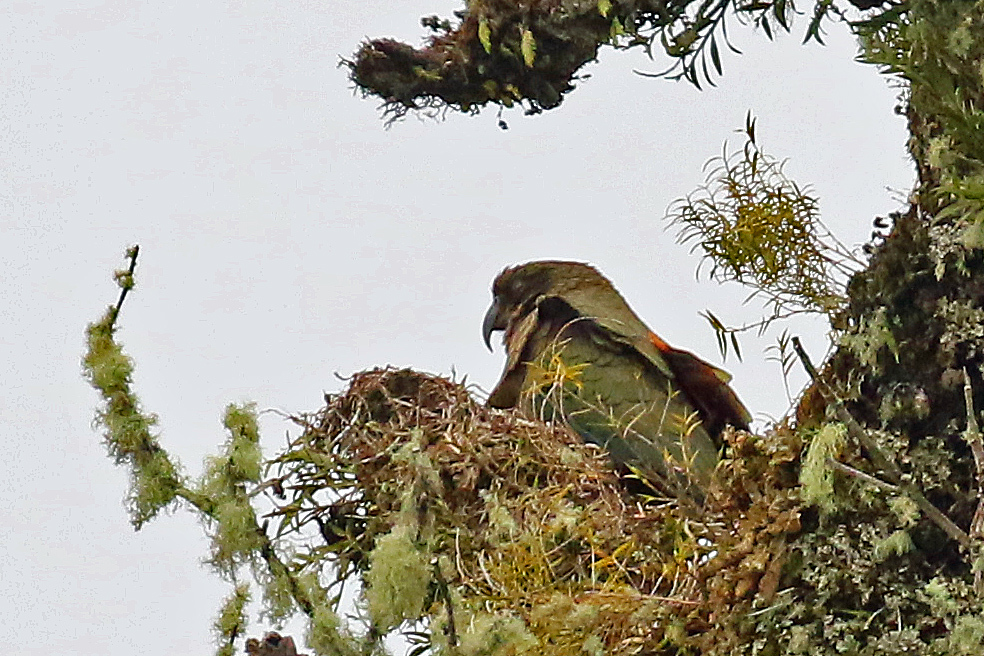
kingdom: Animalia
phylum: Chordata
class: Aves
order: Psittaciformes
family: Psittacidae
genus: Nestor
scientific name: Nestor notabilis
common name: Kea
